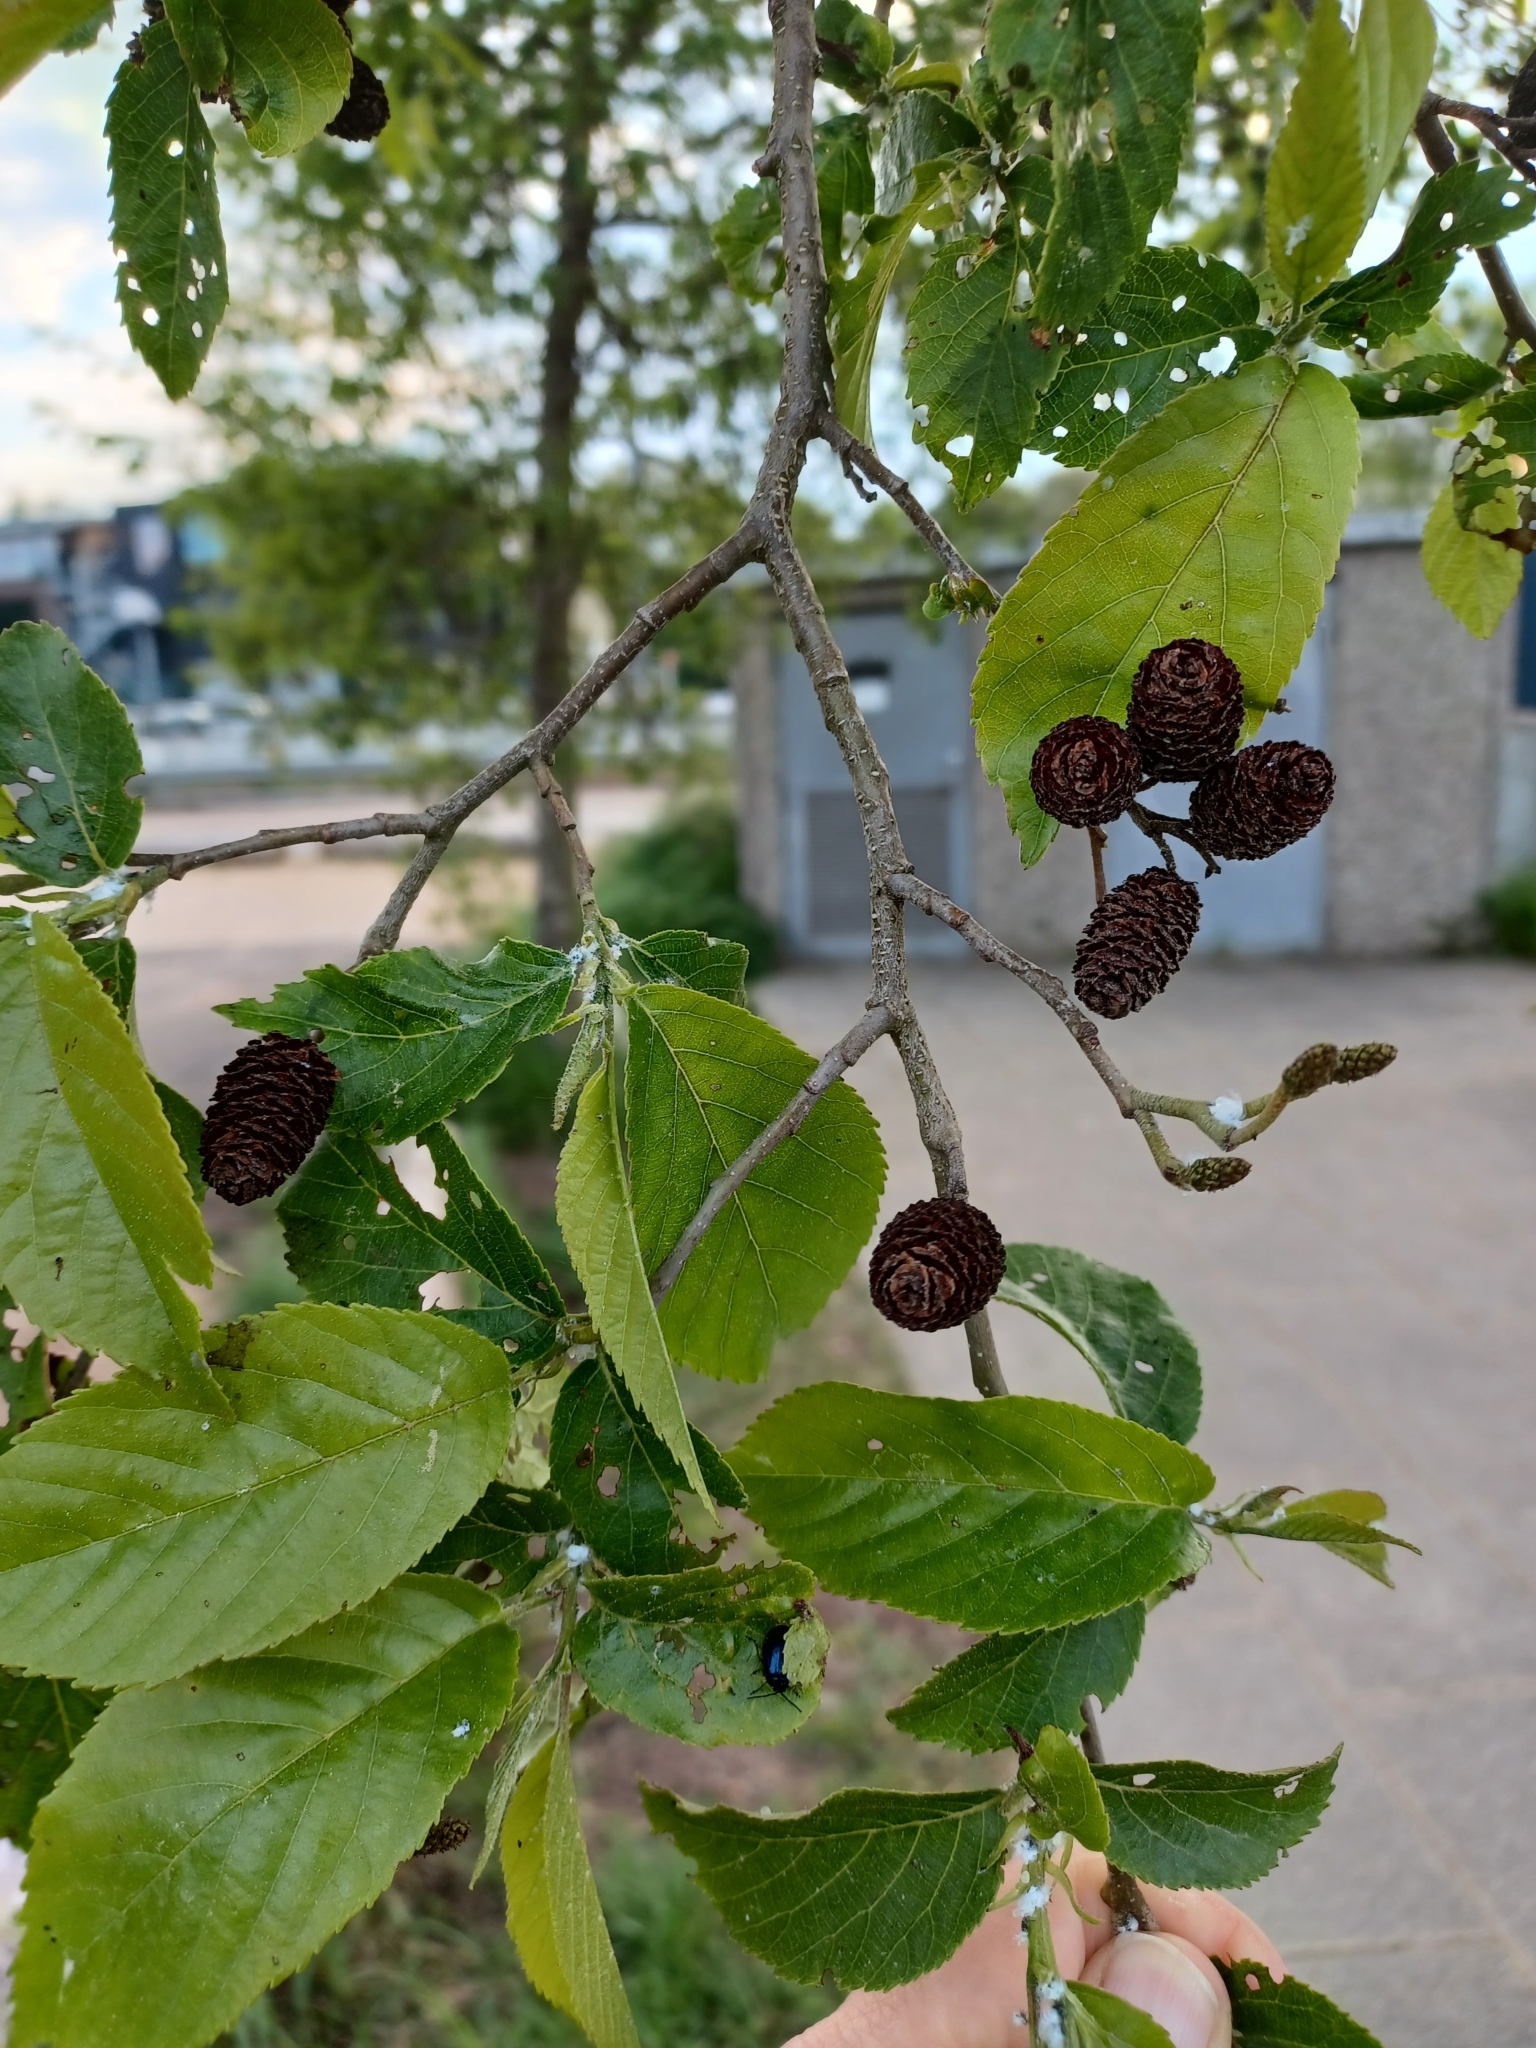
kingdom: Plantae
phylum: Tracheophyta
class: Magnoliopsida
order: Fagales
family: Betulaceae
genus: Alnus
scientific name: Alnus glutinosa
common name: Black alder
